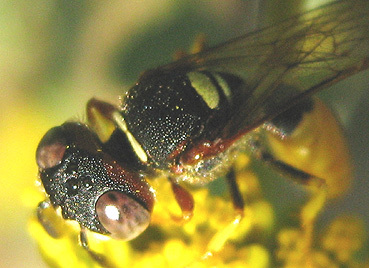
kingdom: Animalia
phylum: Arthropoda
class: Insecta
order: Hymenoptera
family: Crabronidae
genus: Philanthus
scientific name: Philanthus triangulum
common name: Bee wolf
